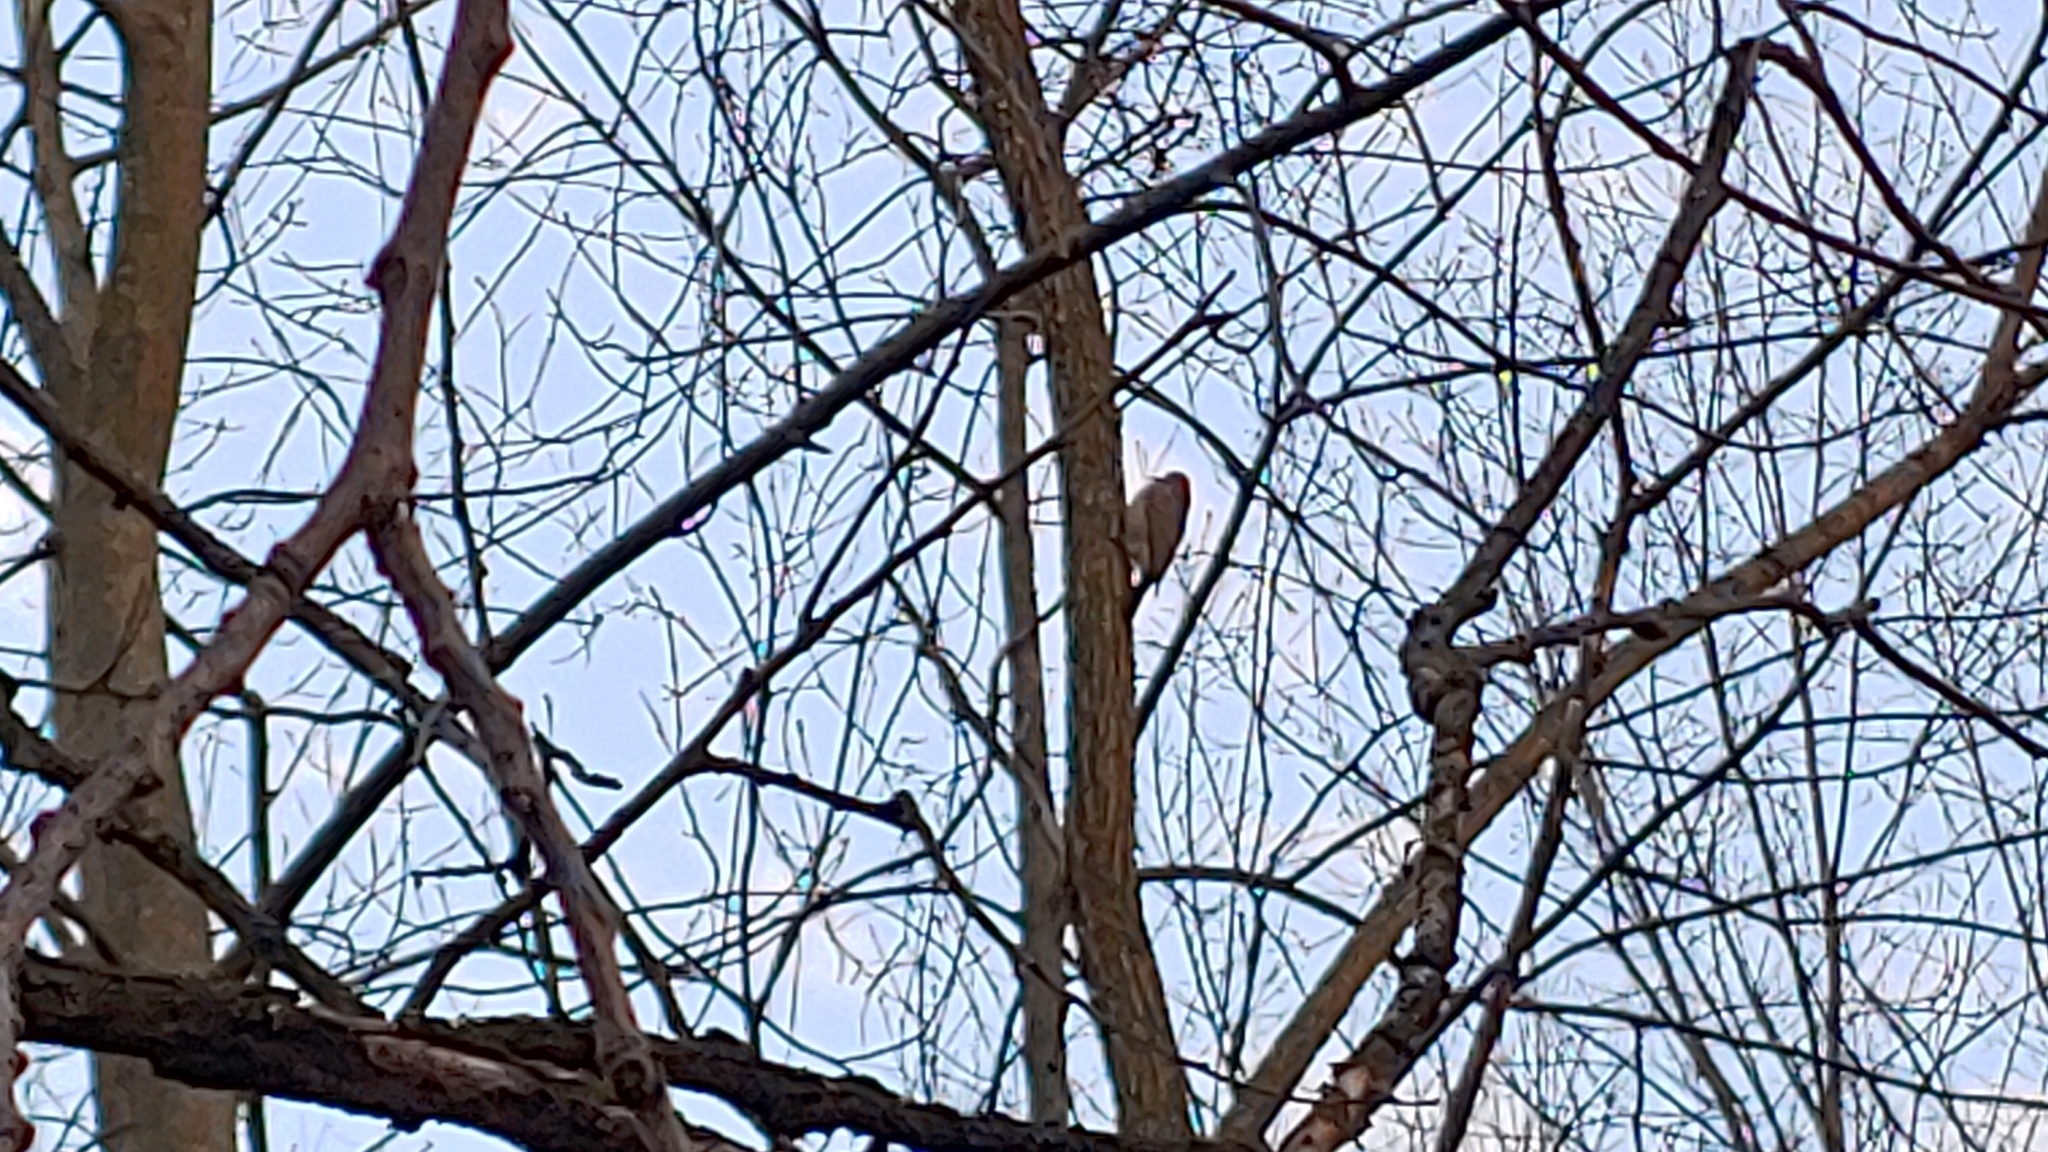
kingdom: Animalia
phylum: Chordata
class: Aves
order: Piciformes
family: Picidae
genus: Colaptes
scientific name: Colaptes auratus
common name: Northern flicker
